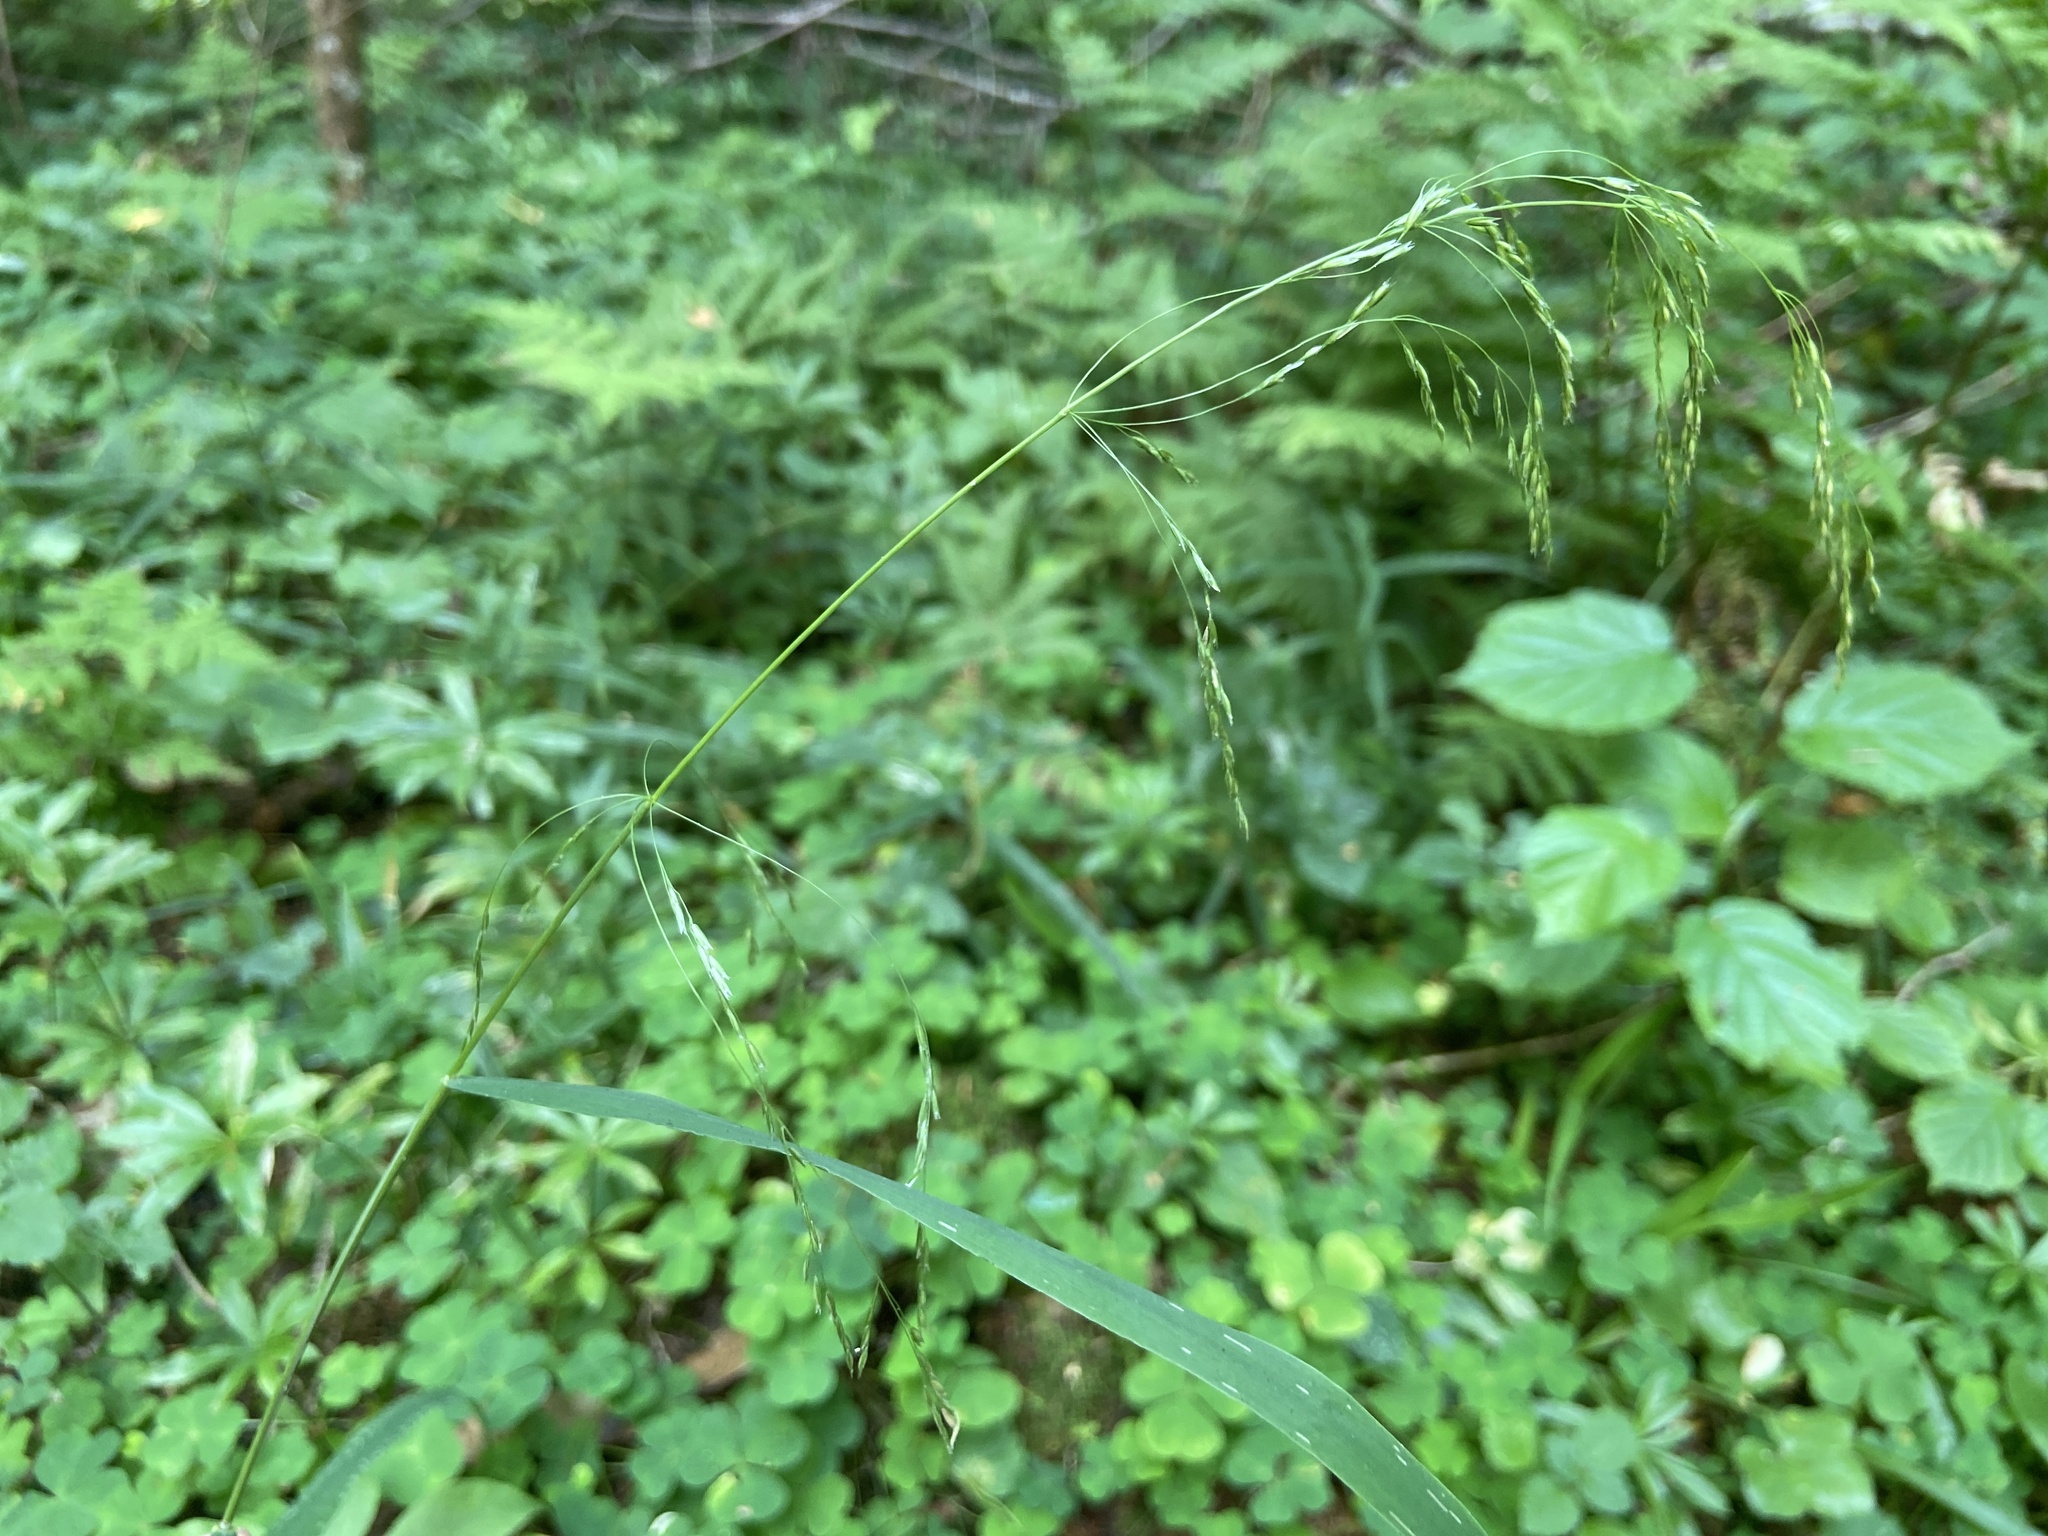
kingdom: Plantae
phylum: Tracheophyta
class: Liliopsida
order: Poales
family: Poaceae
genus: Glyceria
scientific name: Glyceria lithuanica
